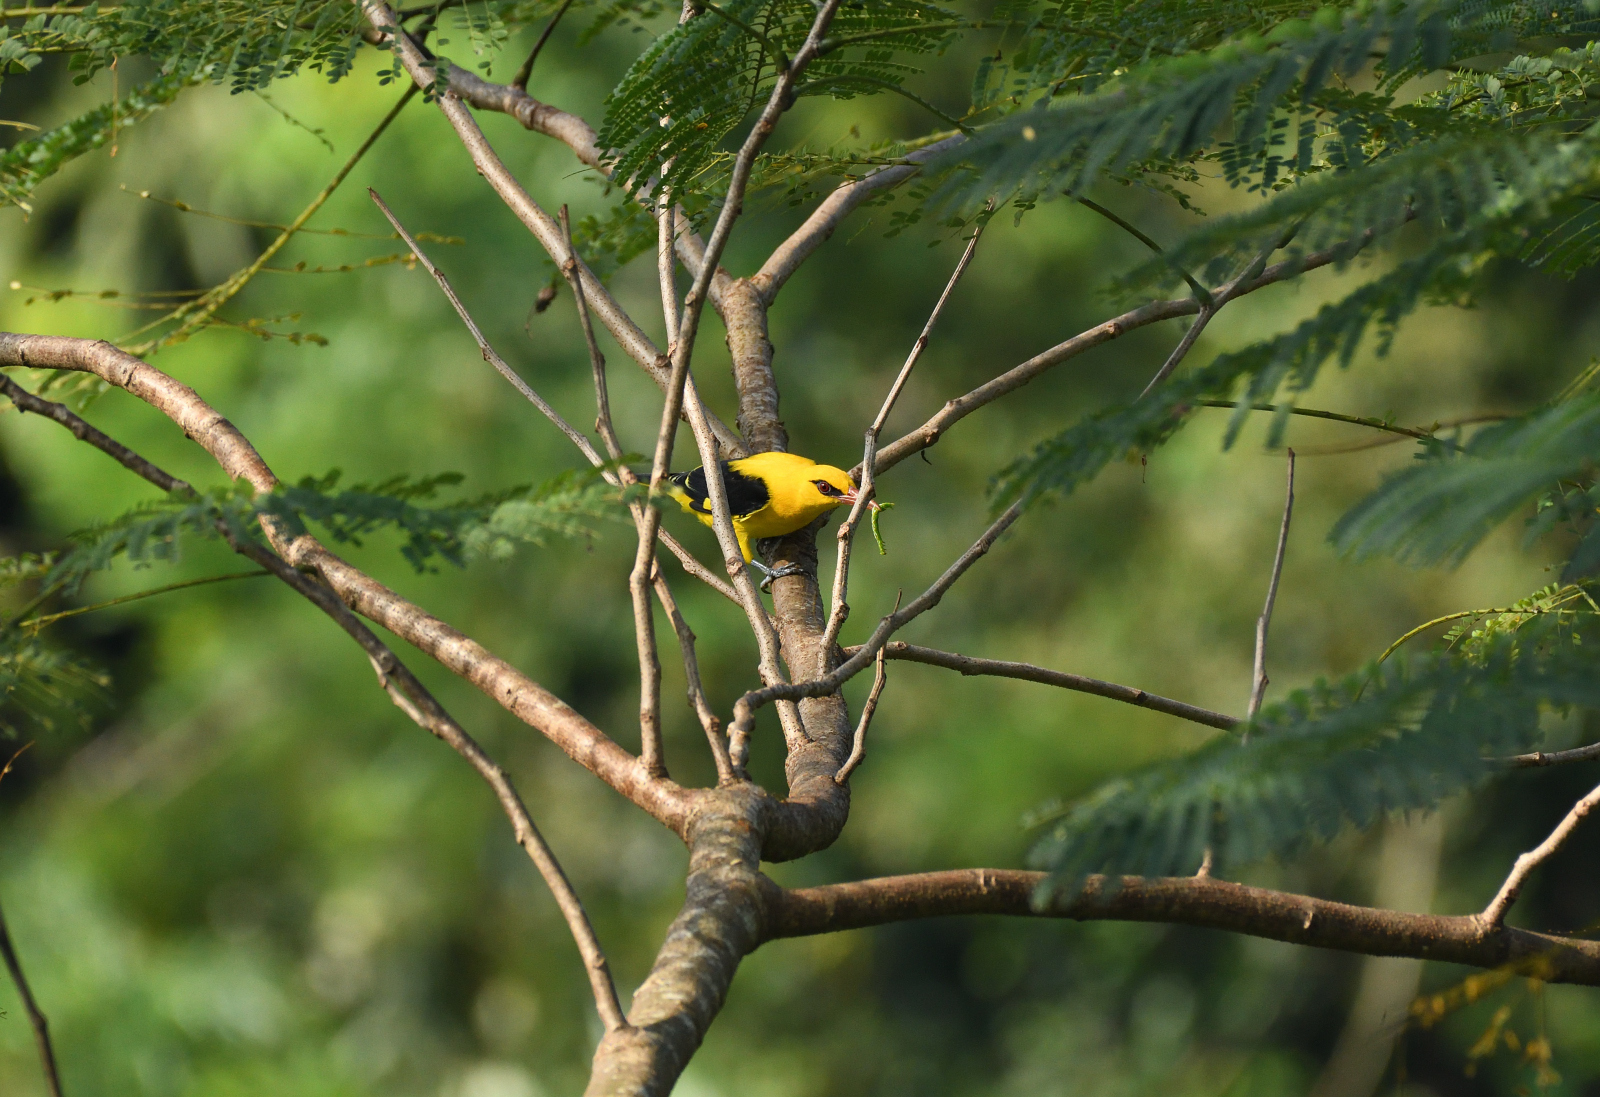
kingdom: Animalia
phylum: Chordata
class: Aves
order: Passeriformes
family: Oriolidae
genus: Oriolus
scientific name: Oriolus kundoo
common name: Indian golden oriole
